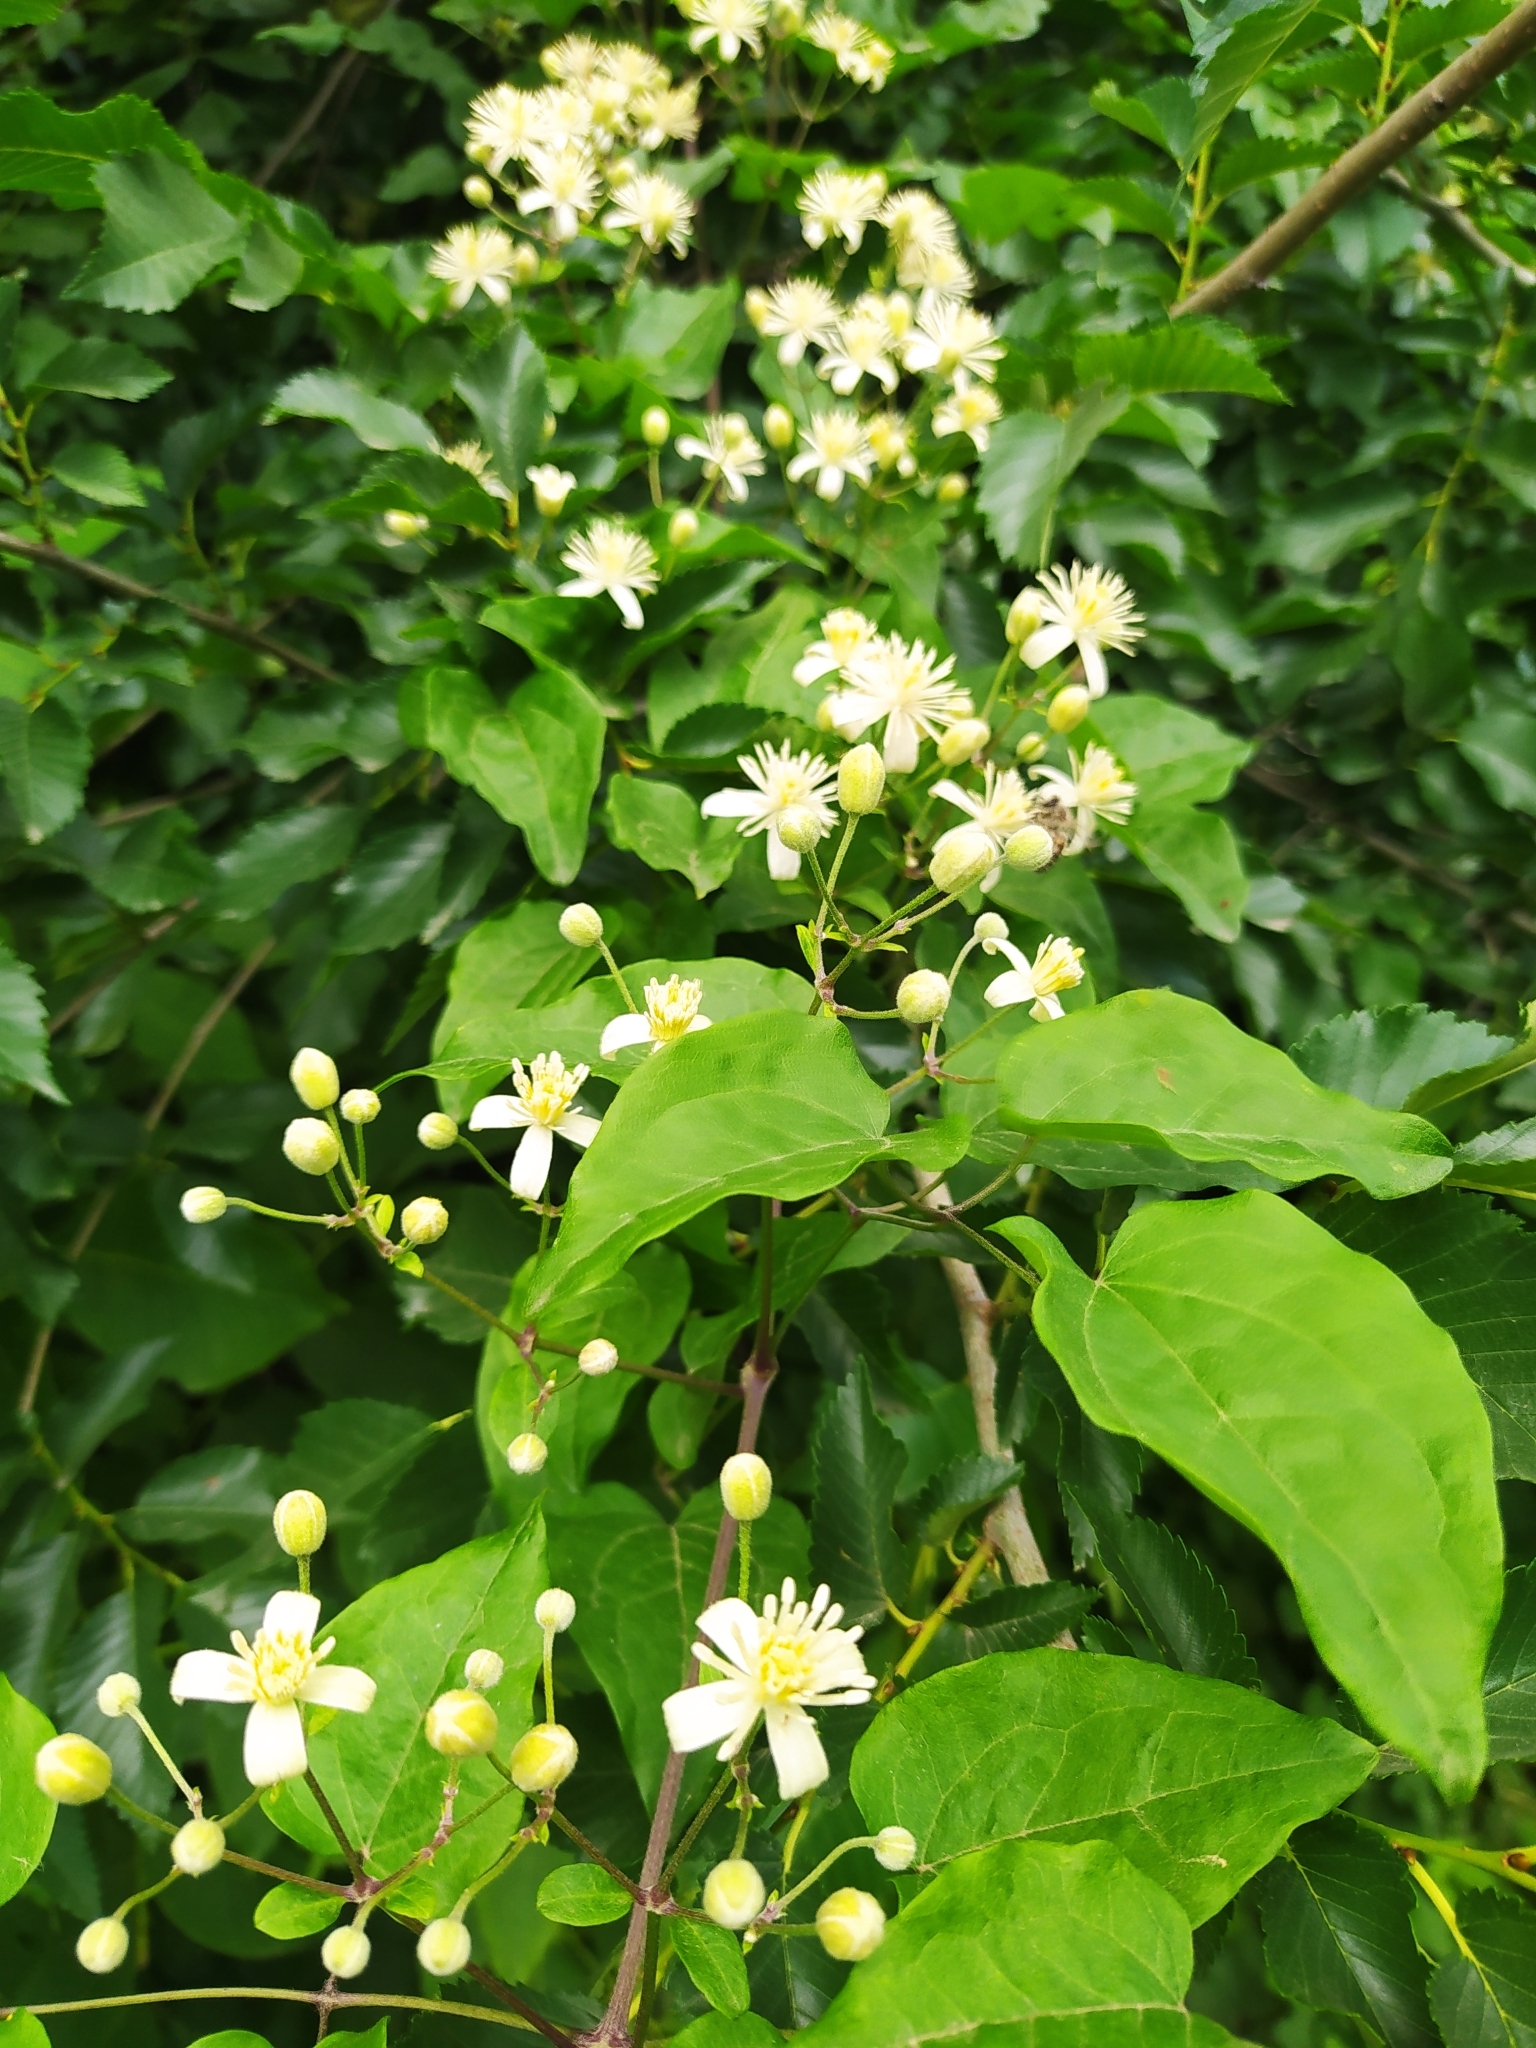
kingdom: Plantae
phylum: Tracheophyta
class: Magnoliopsida
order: Ranunculales
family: Ranunculaceae
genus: Clematis
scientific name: Clematis vitalba
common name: Evergreen clematis
